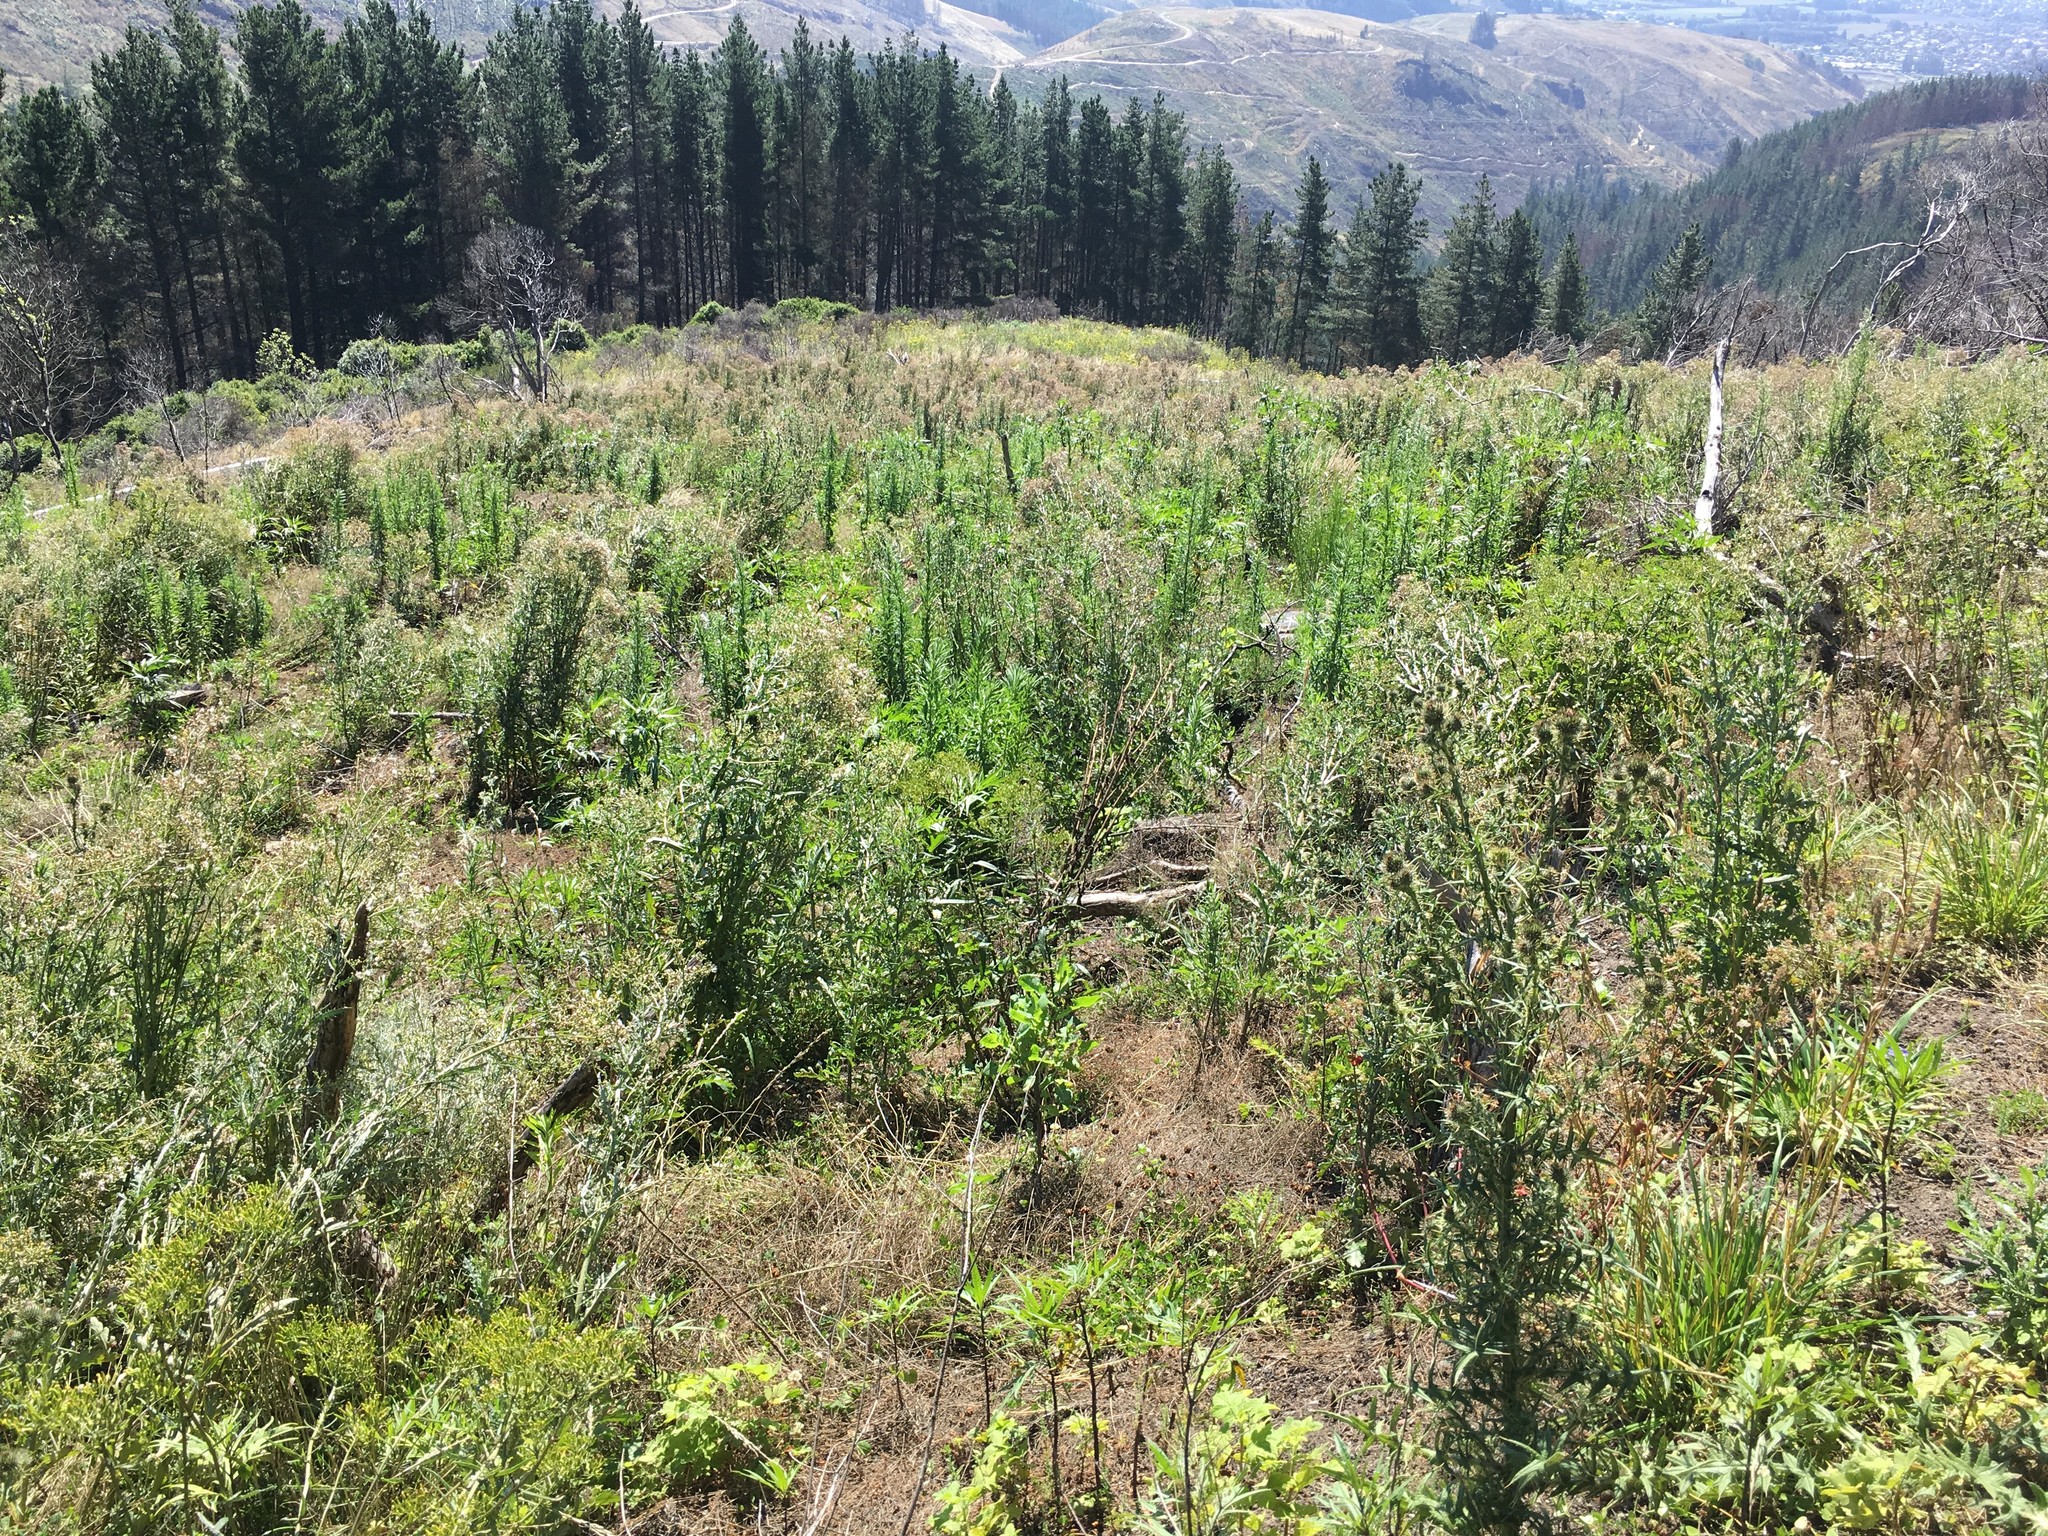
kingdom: Plantae
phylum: Tracheophyta
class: Magnoliopsida
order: Asterales
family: Asteraceae
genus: Cirsium
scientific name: Cirsium vulgare
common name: Bull thistle
